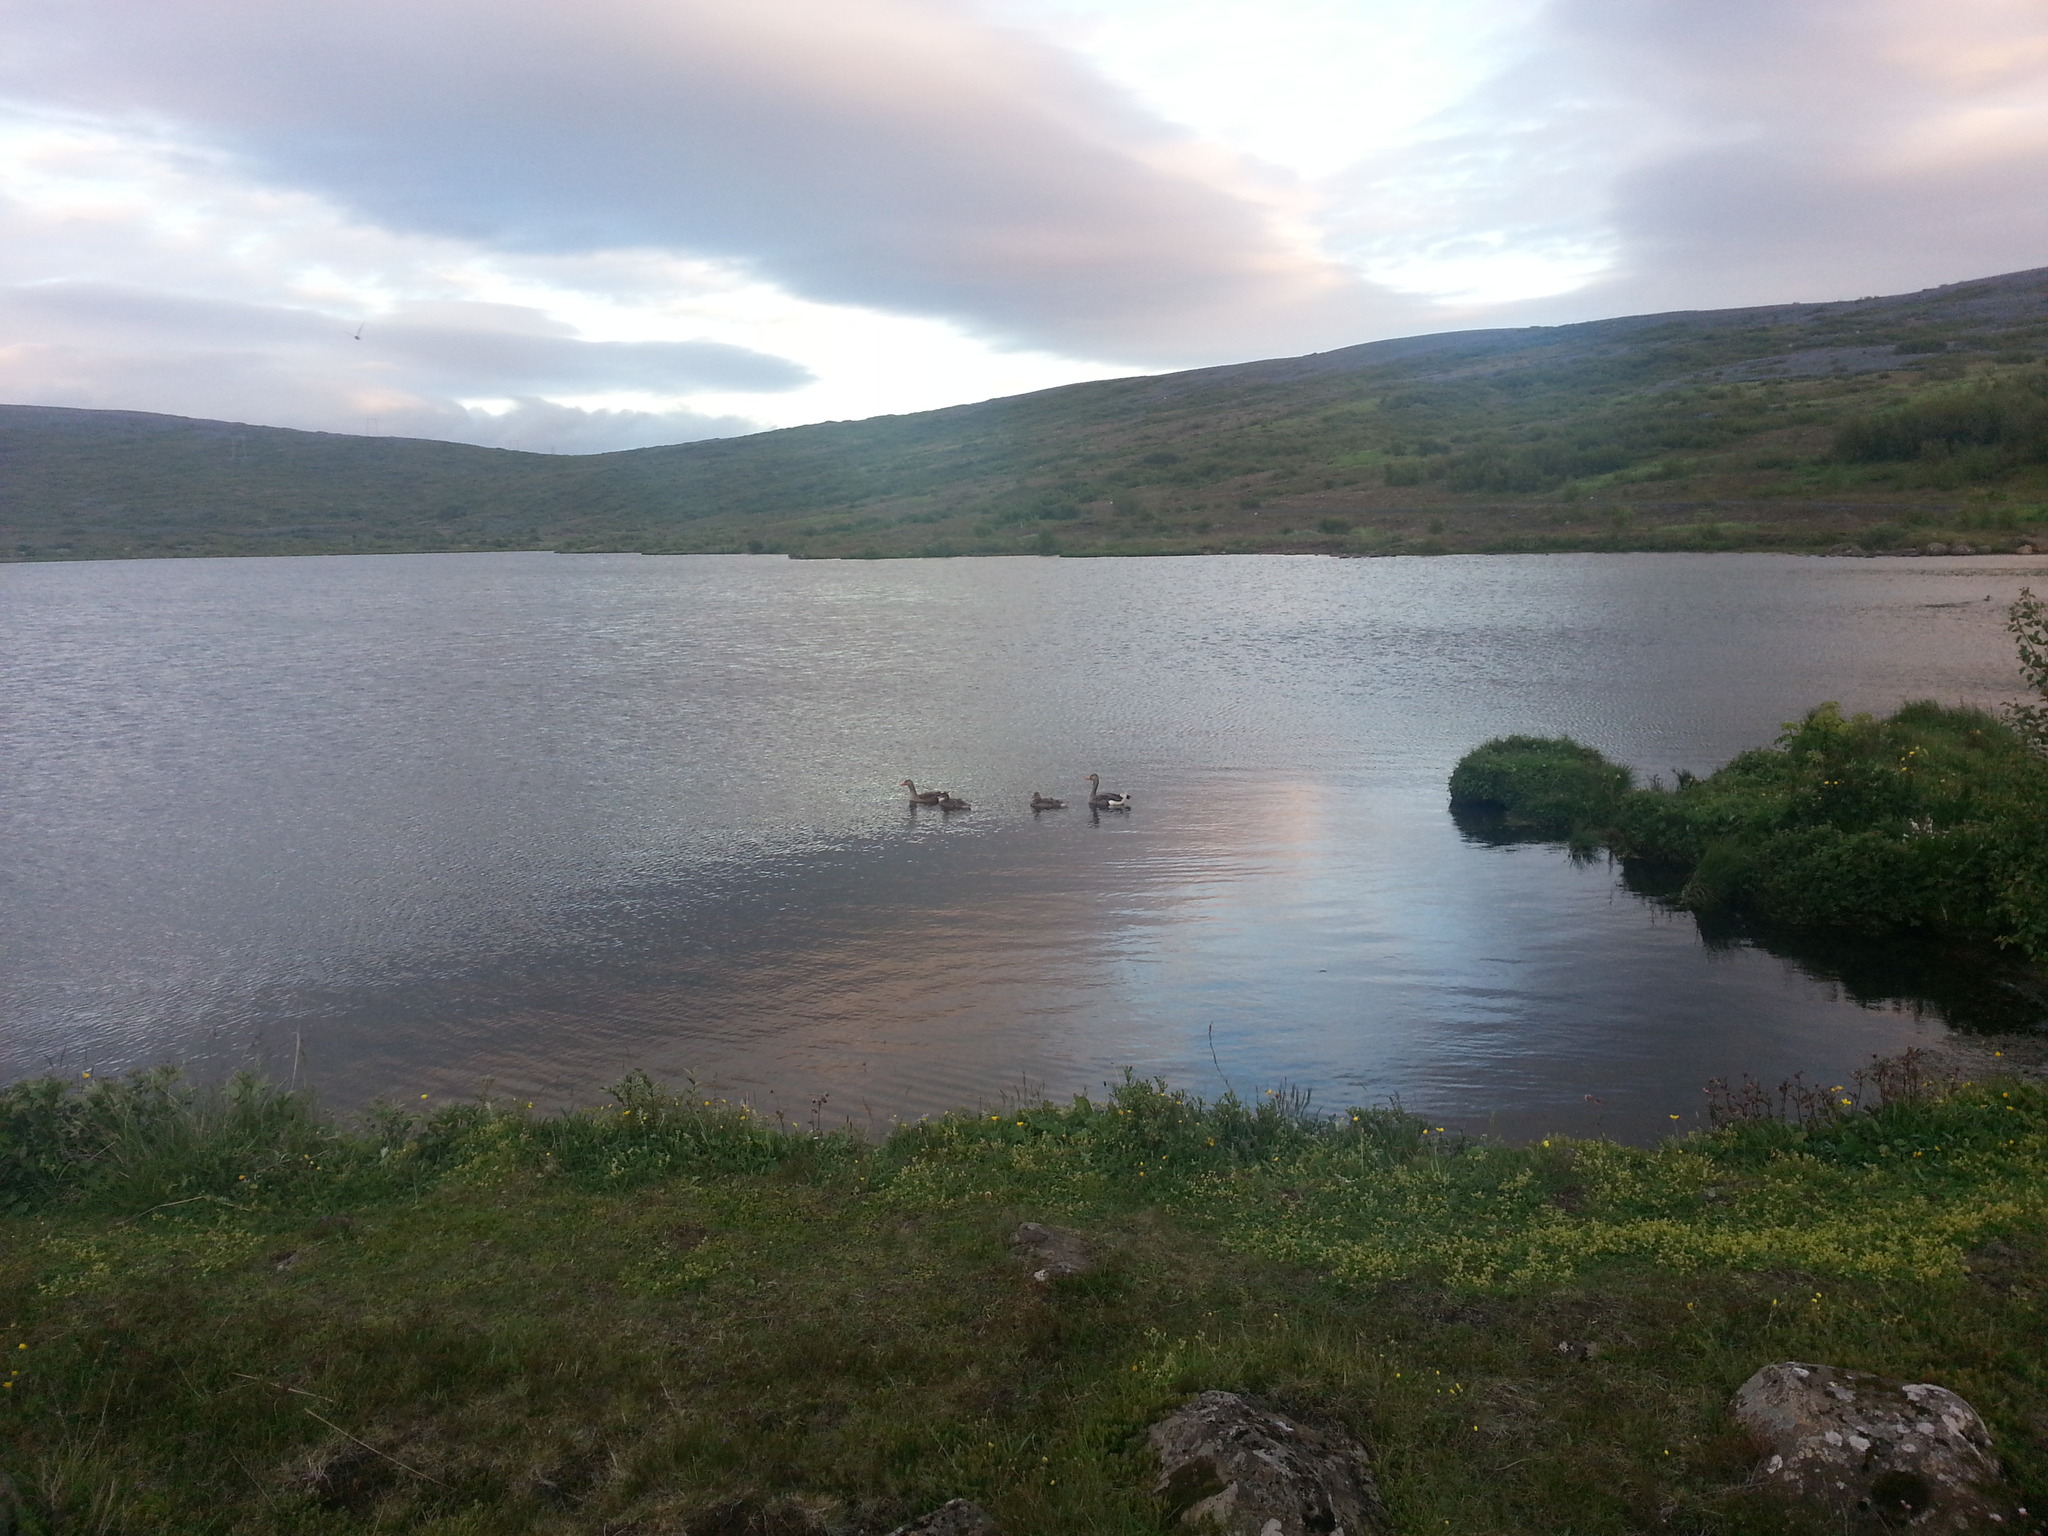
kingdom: Animalia
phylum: Chordata
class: Aves
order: Anseriformes
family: Anatidae
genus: Anser
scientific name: Anser anser
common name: Greylag goose
